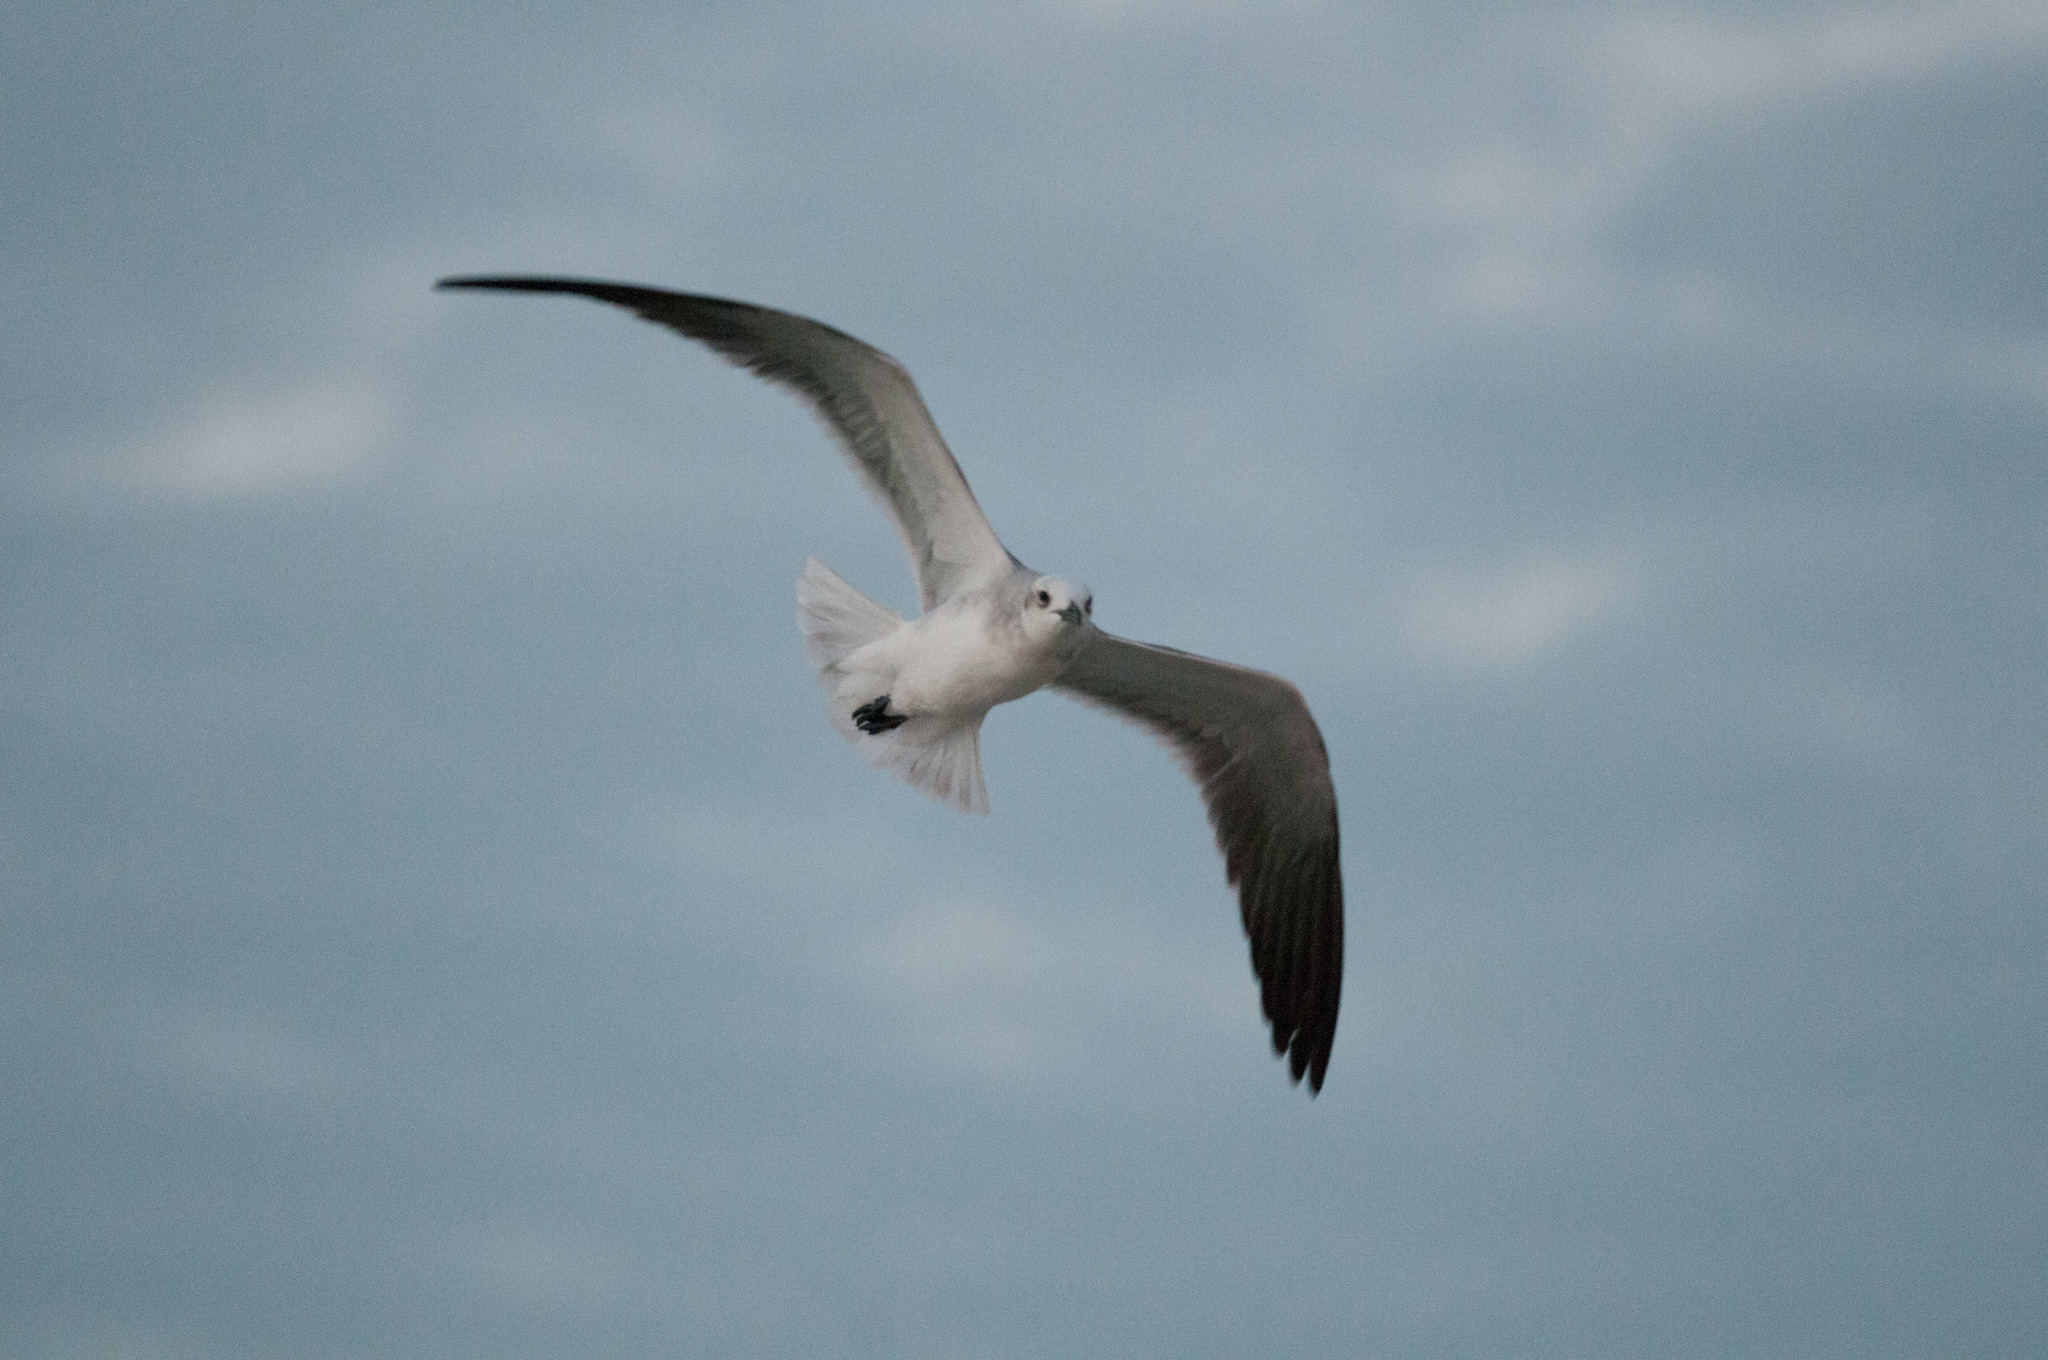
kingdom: Animalia
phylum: Chordata
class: Aves
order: Charadriiformes
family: Laridae
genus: Leucophaeus
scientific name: Leucophaeus atricilla
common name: Laughing gull
